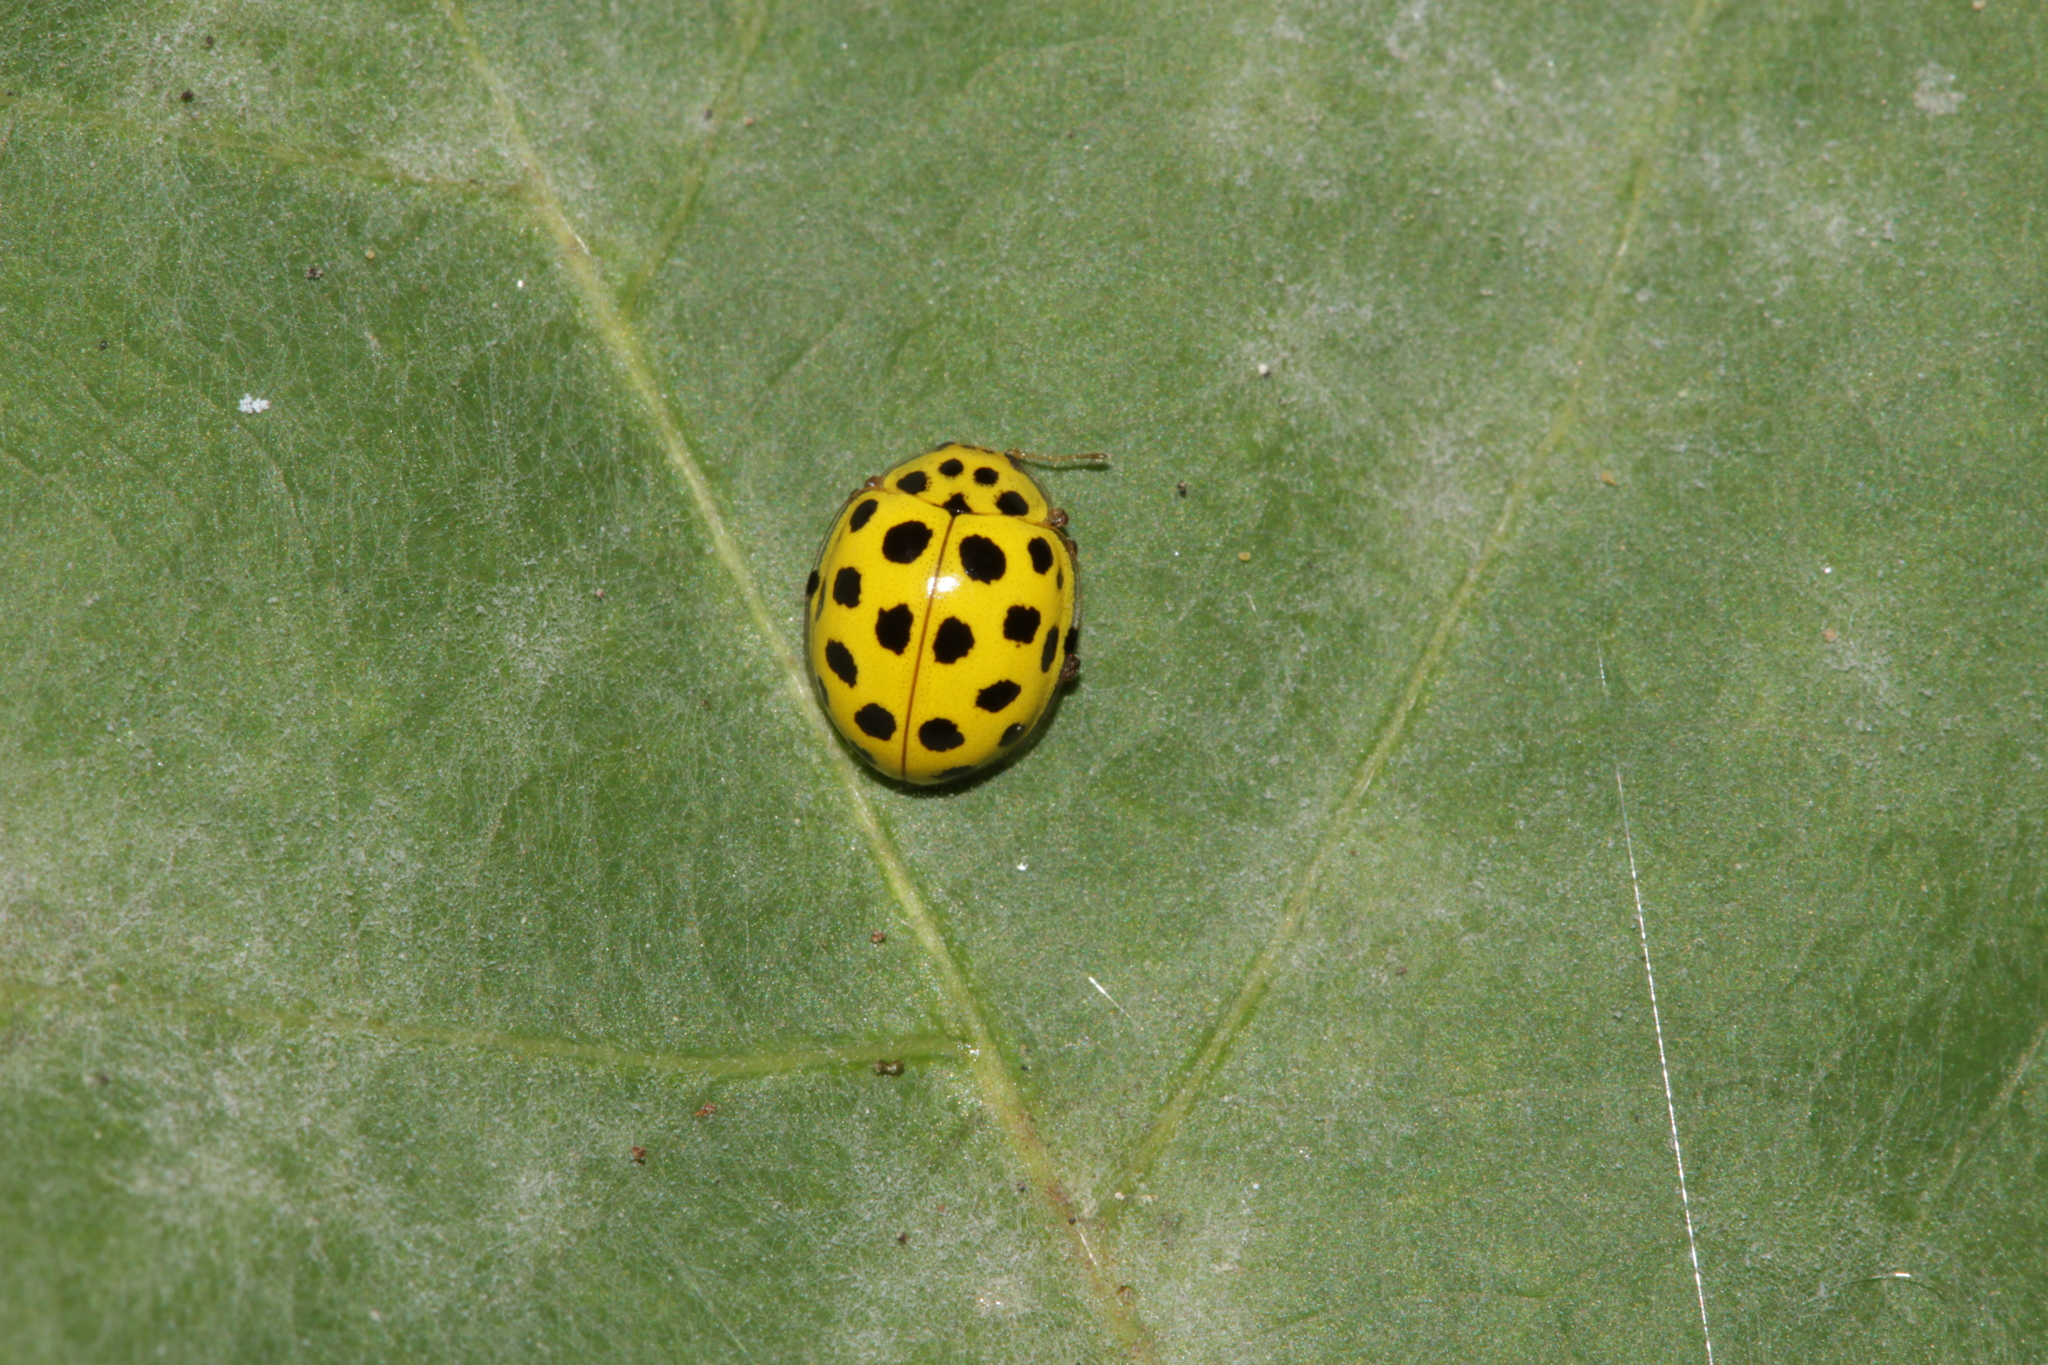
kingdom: Animalia
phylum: Arthropoda
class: Insecta
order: Coleoptera
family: Coccinellidae
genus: Psyllobora
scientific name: Psyllobora vigintiduopunctata
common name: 22-spot ladybird
